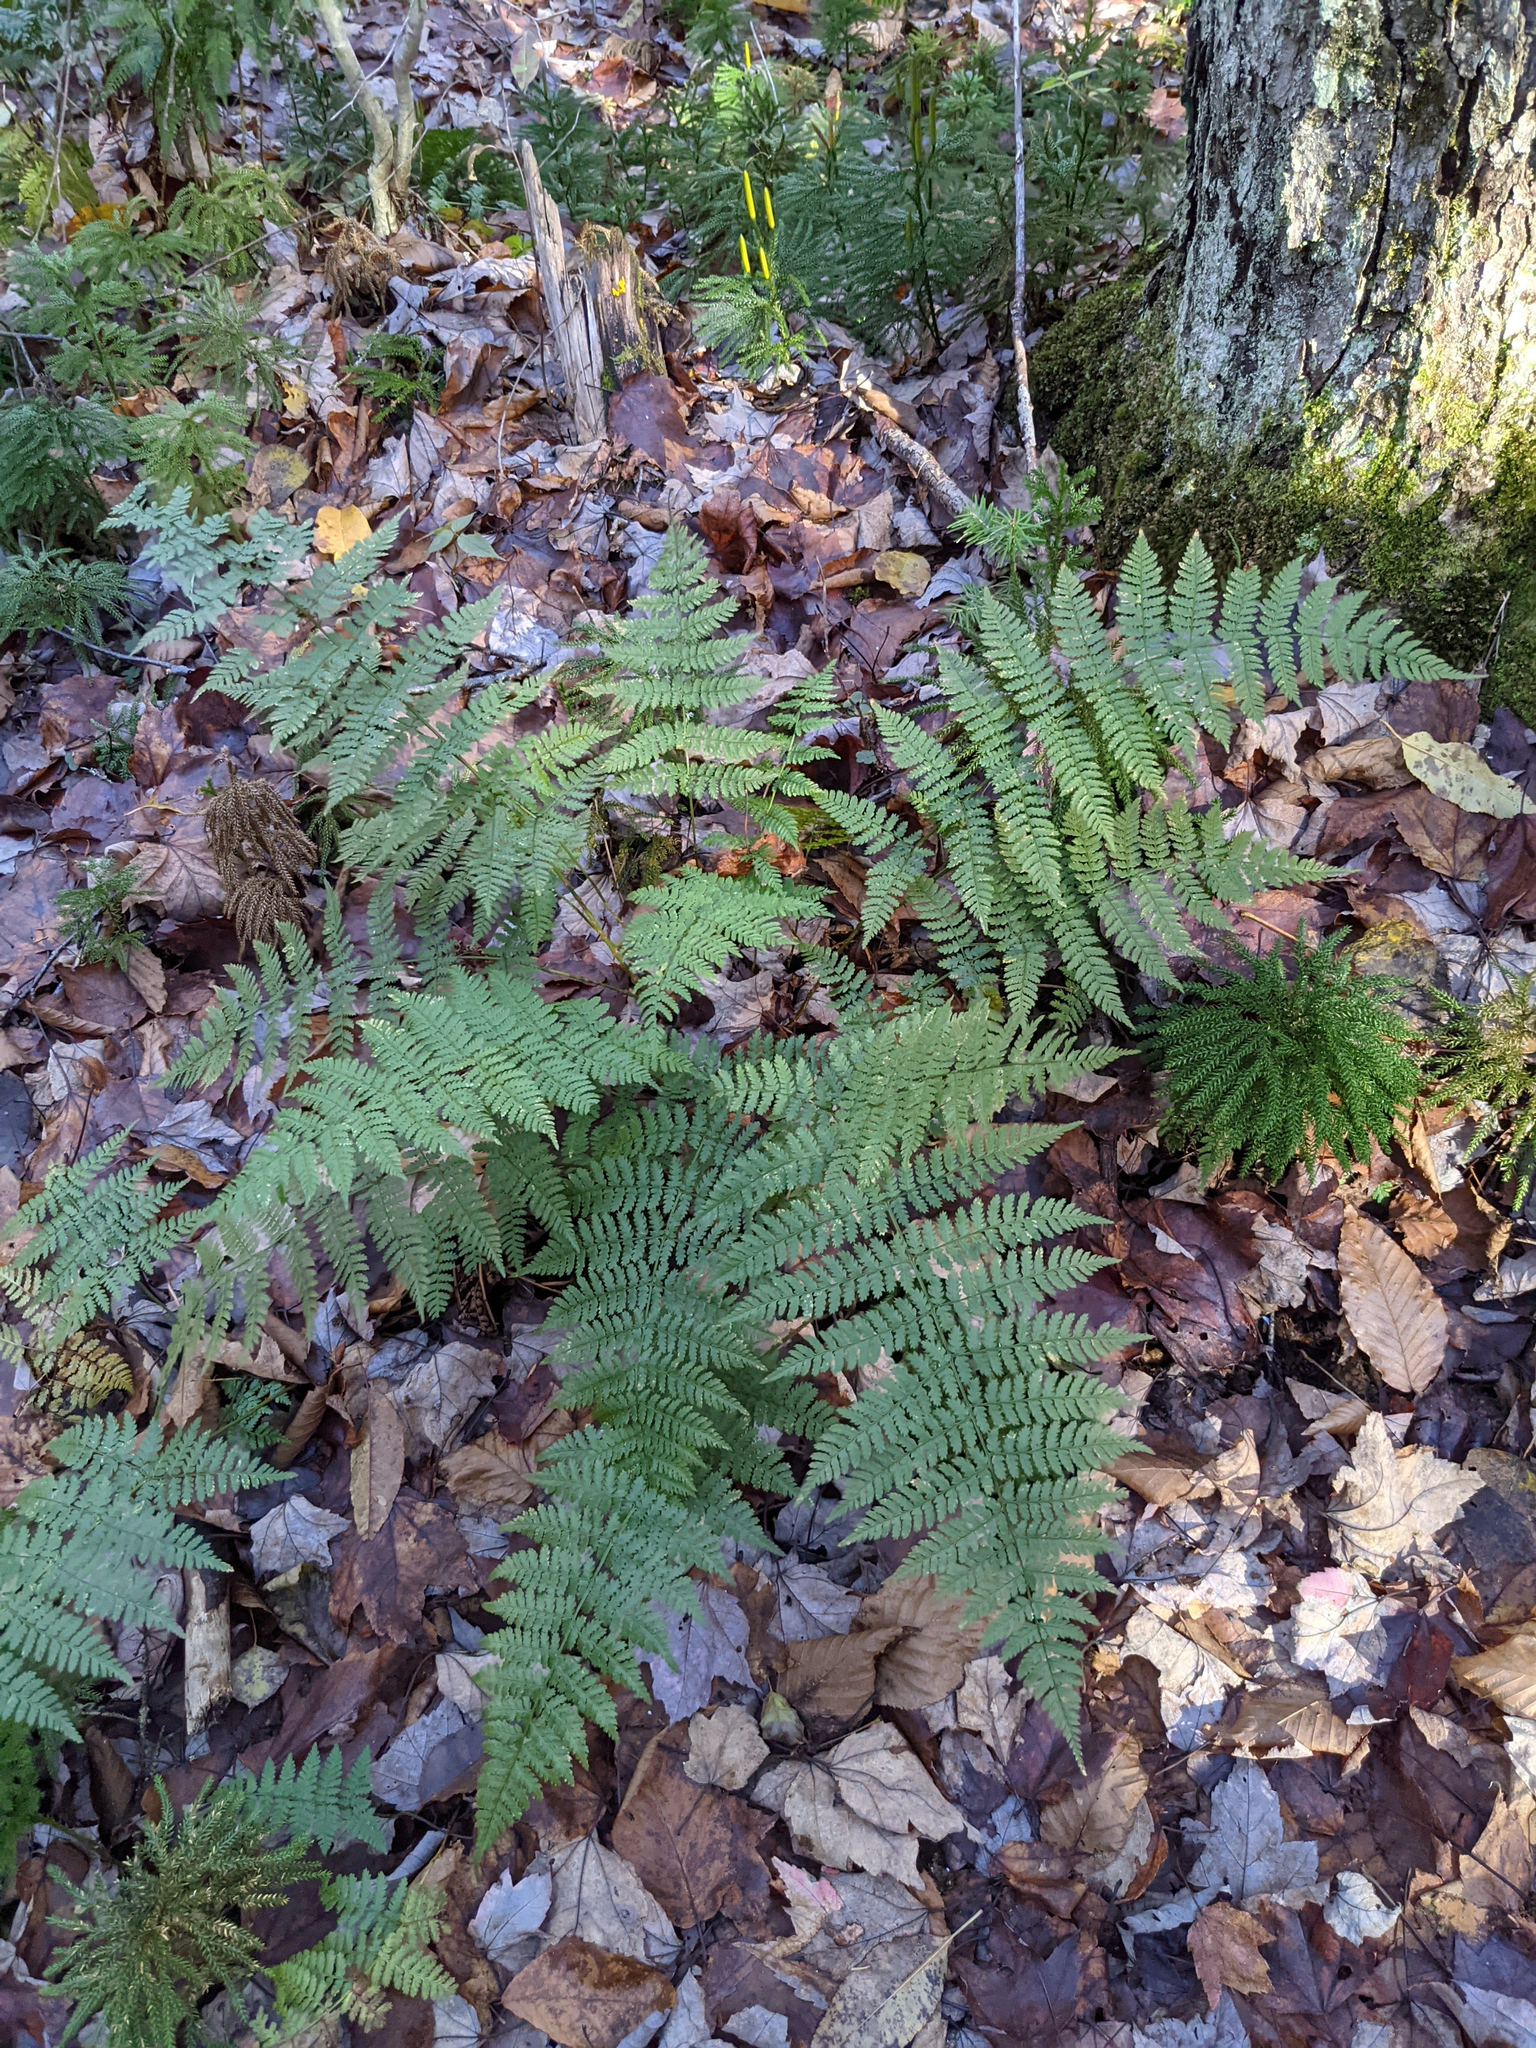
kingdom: Plantae
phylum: Tracheophyta
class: Polypodiopsida
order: Polypodiales
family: Dryopteridaceae
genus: Dryopteris
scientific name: Dryopteris intermedia
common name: Evergreen wood fern
